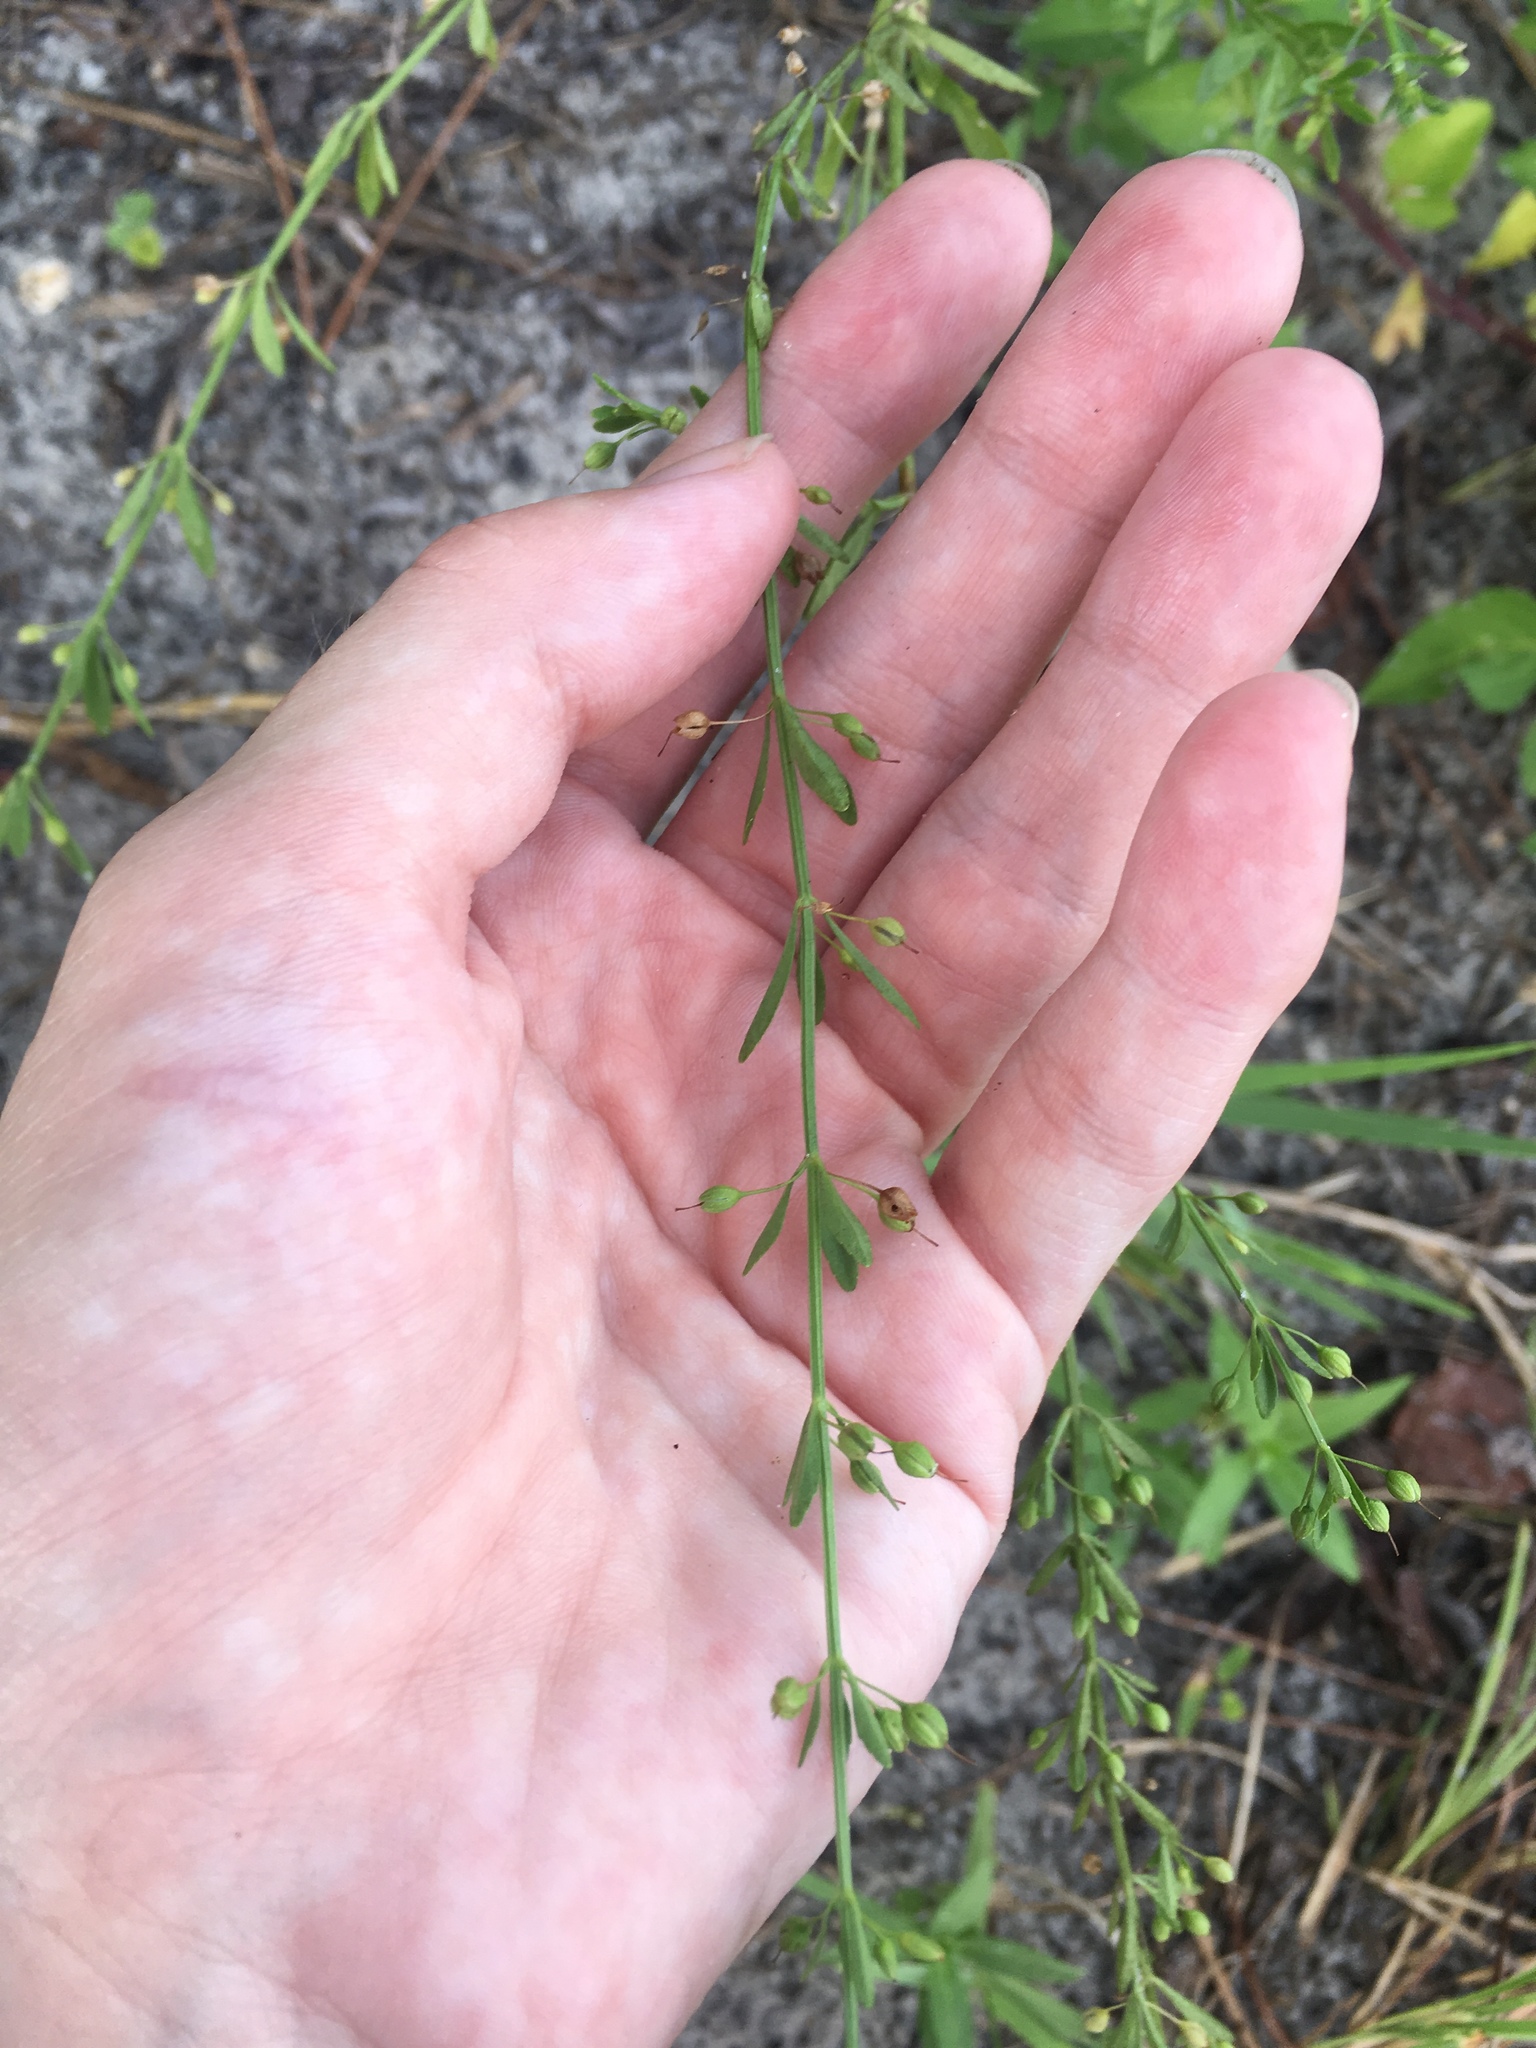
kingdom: Plantae
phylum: Tracheophyta
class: Magnoliopsida
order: Lamiales
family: Plantaginaceae
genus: Scoparia
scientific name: Scoparia dulcis
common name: Scoparia-weed
